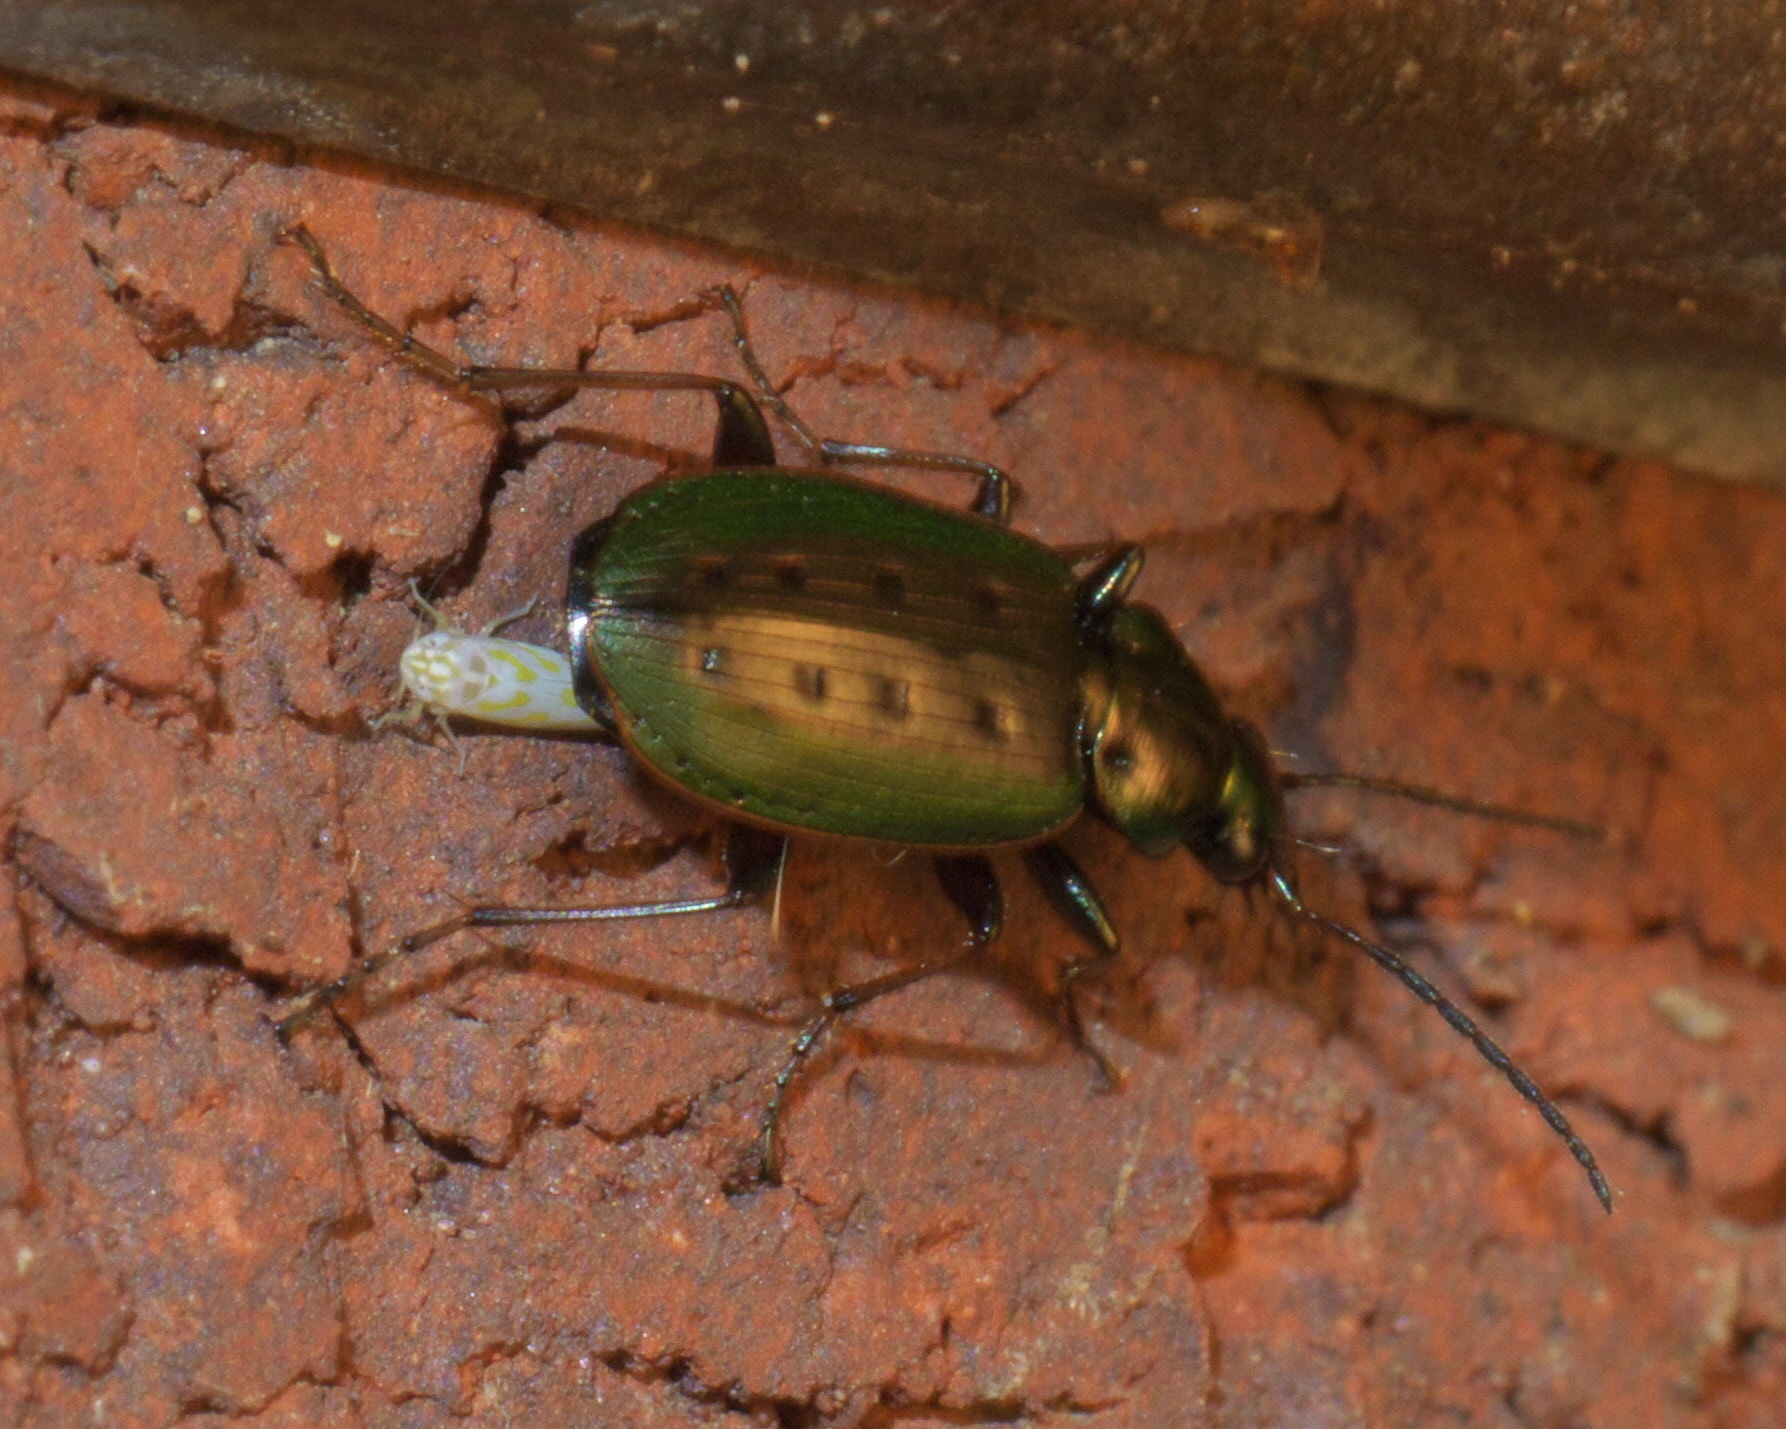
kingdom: Animalia
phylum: Arthropoda
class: Insecta
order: Coleoptera
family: Carabidae
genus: Agonum
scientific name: Agonum octopunctatum
